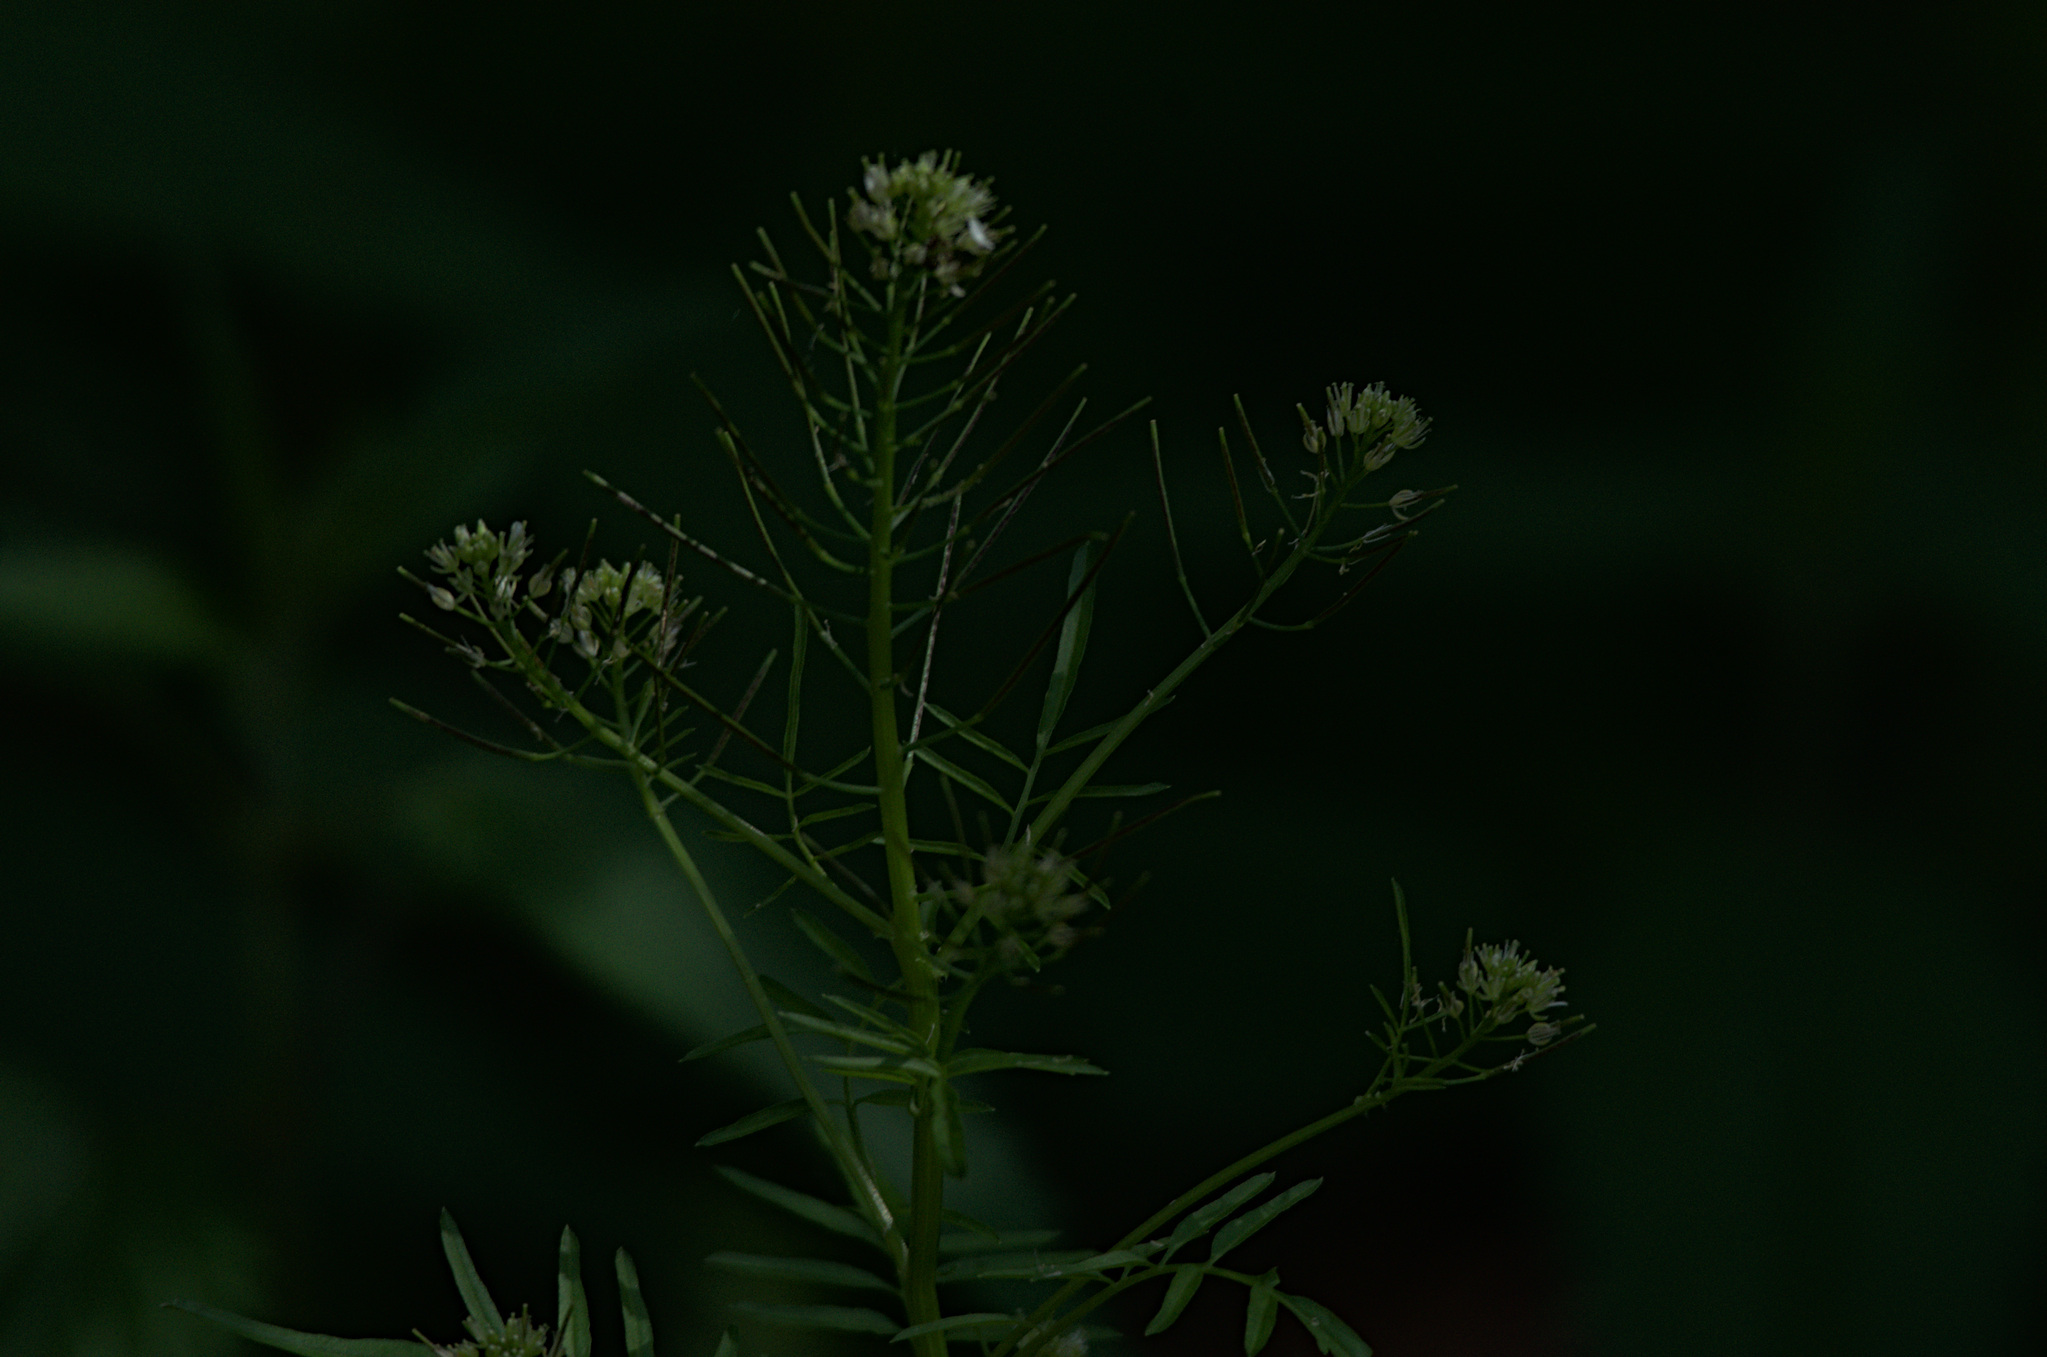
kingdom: Plantae
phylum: Tracheophyta
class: Magnoliopsida
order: Brassicales
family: Brassicaceae
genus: Cardamine
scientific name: Cardamine impatiens
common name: Narrow-leaved bitter-cress
